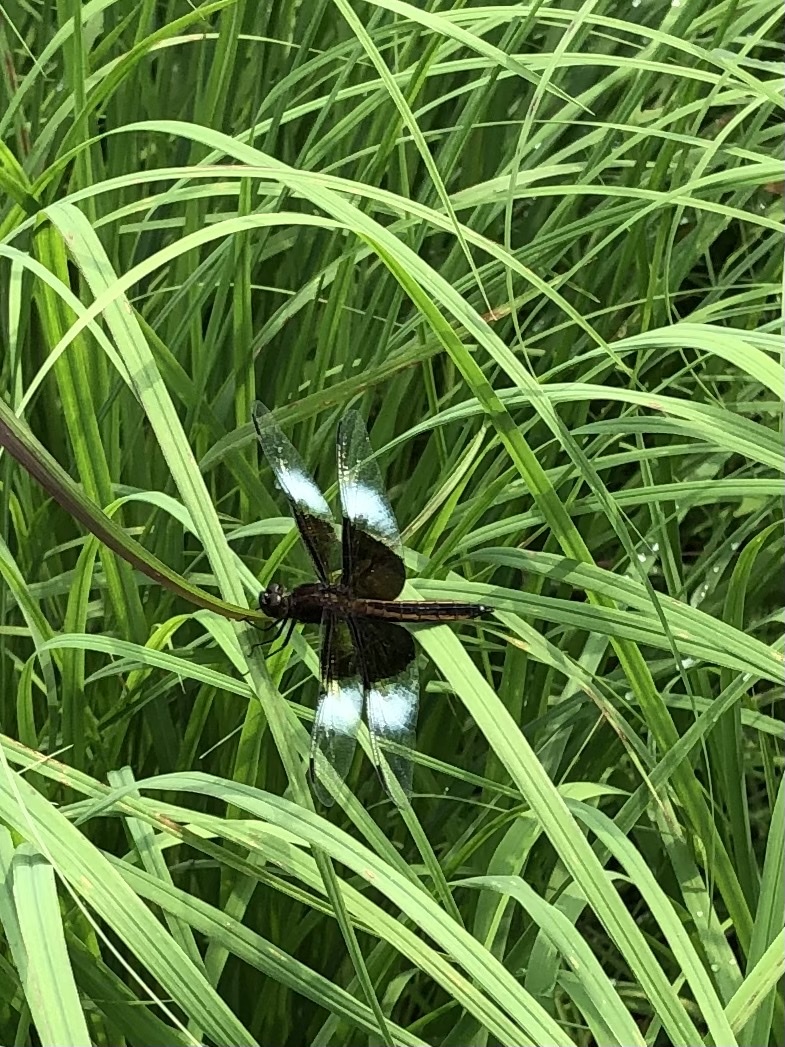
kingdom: Animalia
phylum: Arthropoda
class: Insecta
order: Odonata
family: Libellulidae
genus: Libellula
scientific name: Libellula luctuosa
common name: Widow skimmer
